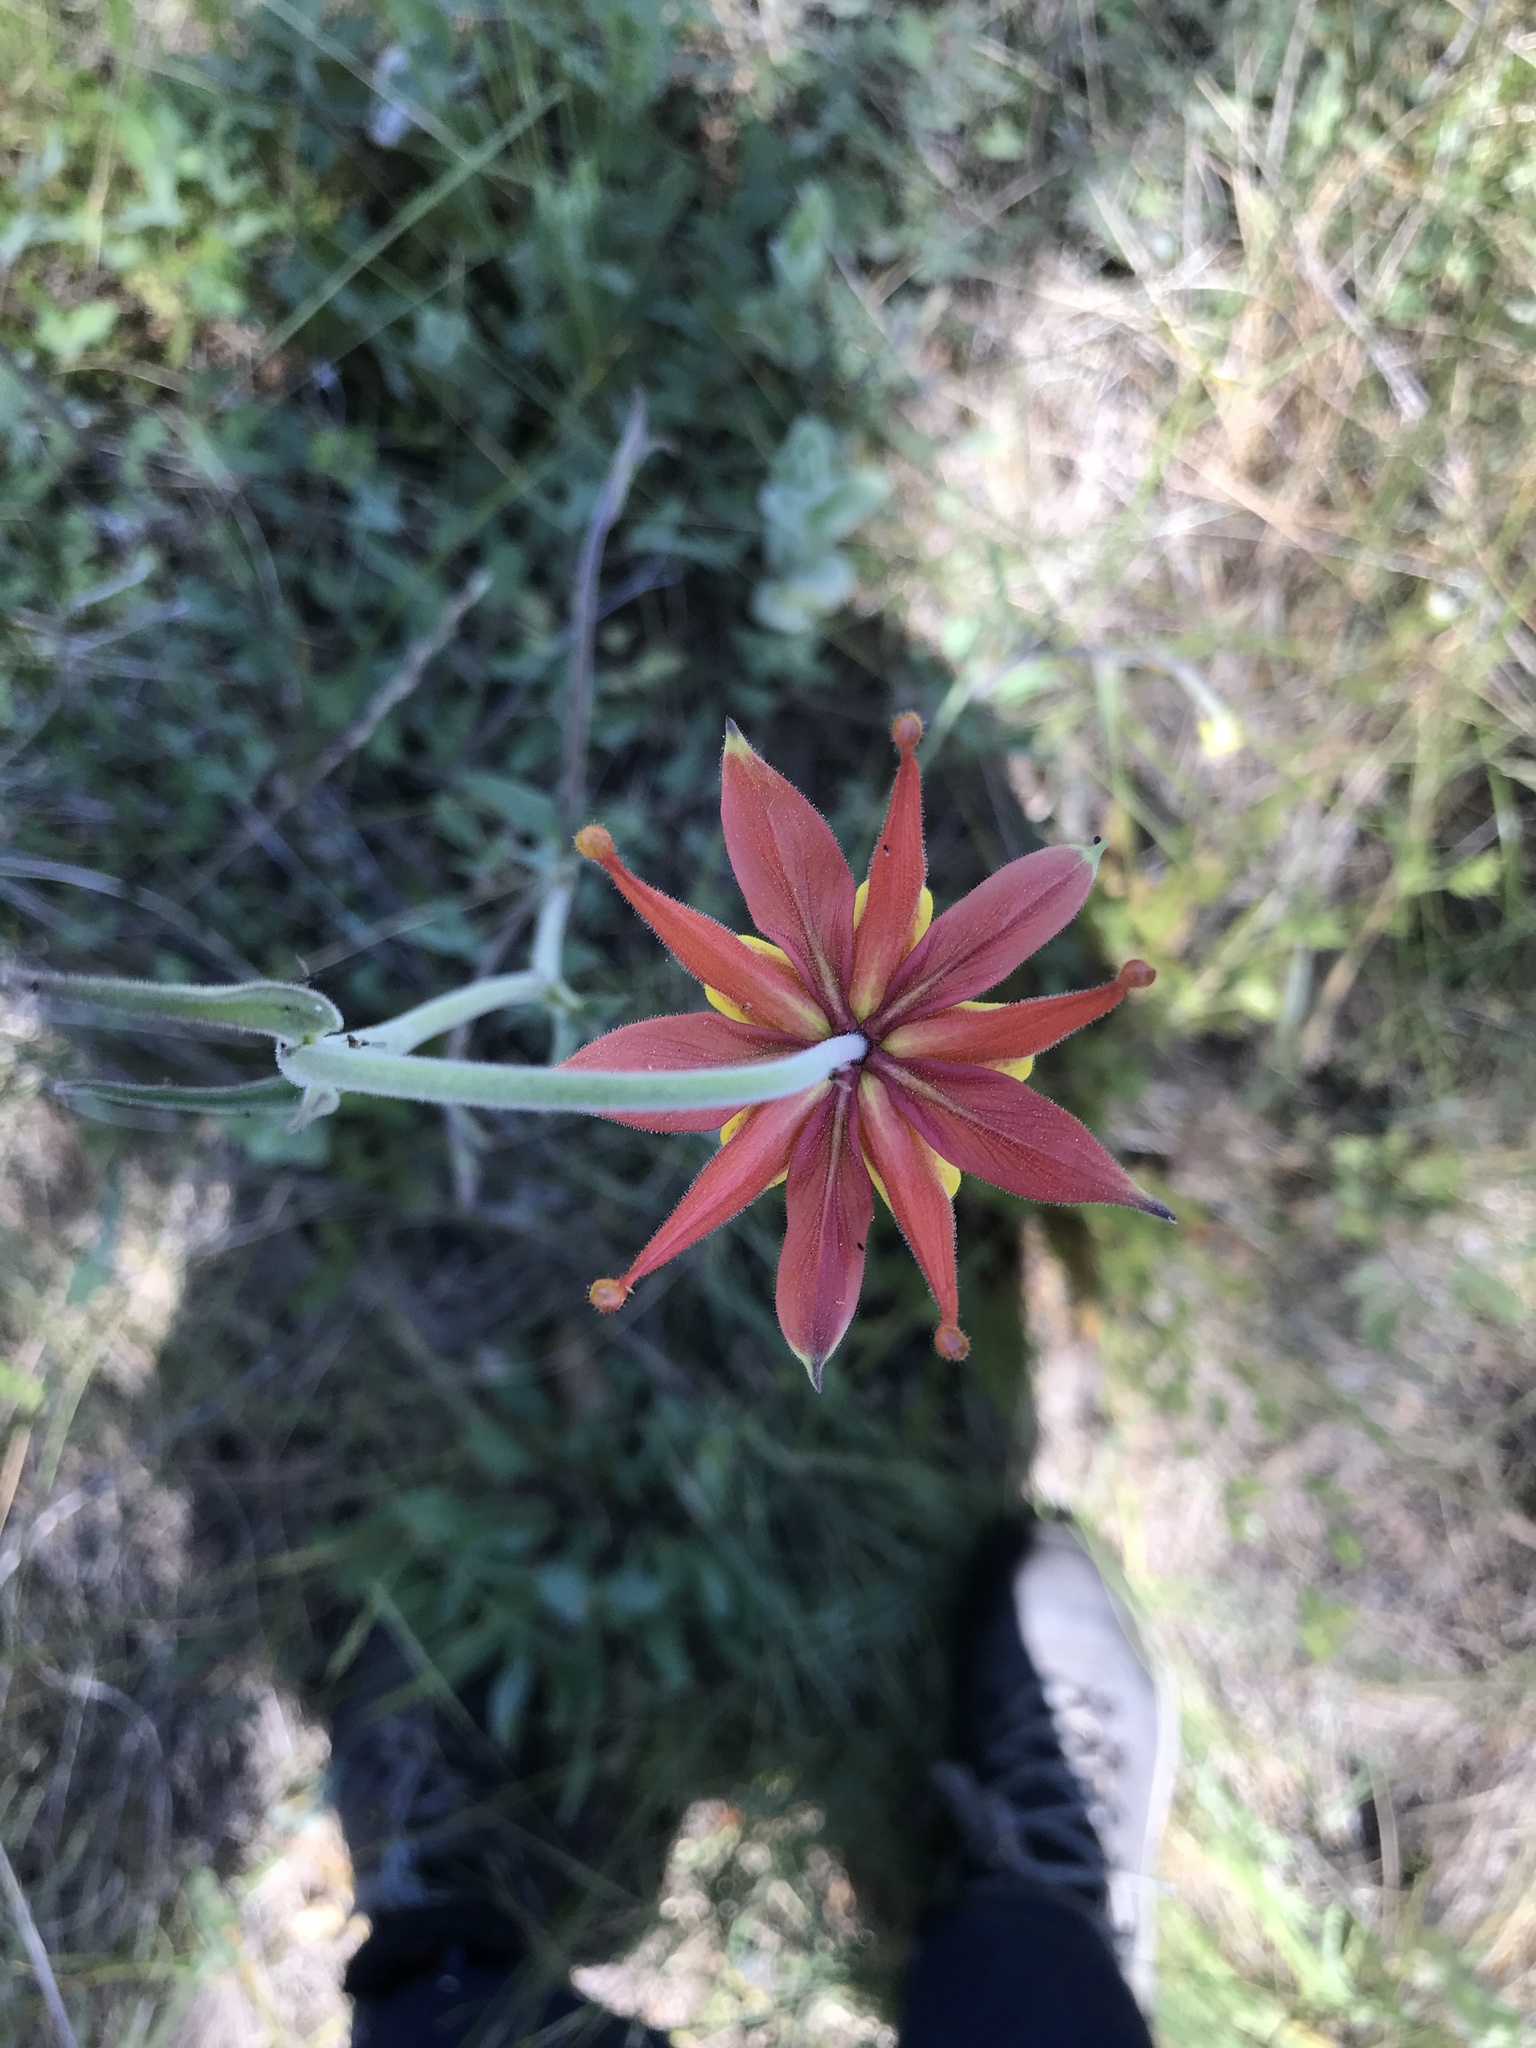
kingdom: Plantae
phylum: Tracheophyta
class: Magnoliopsida
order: Ranunculales
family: Ranunculaceae
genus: Aquilegia
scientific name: Aquilegia eximia
